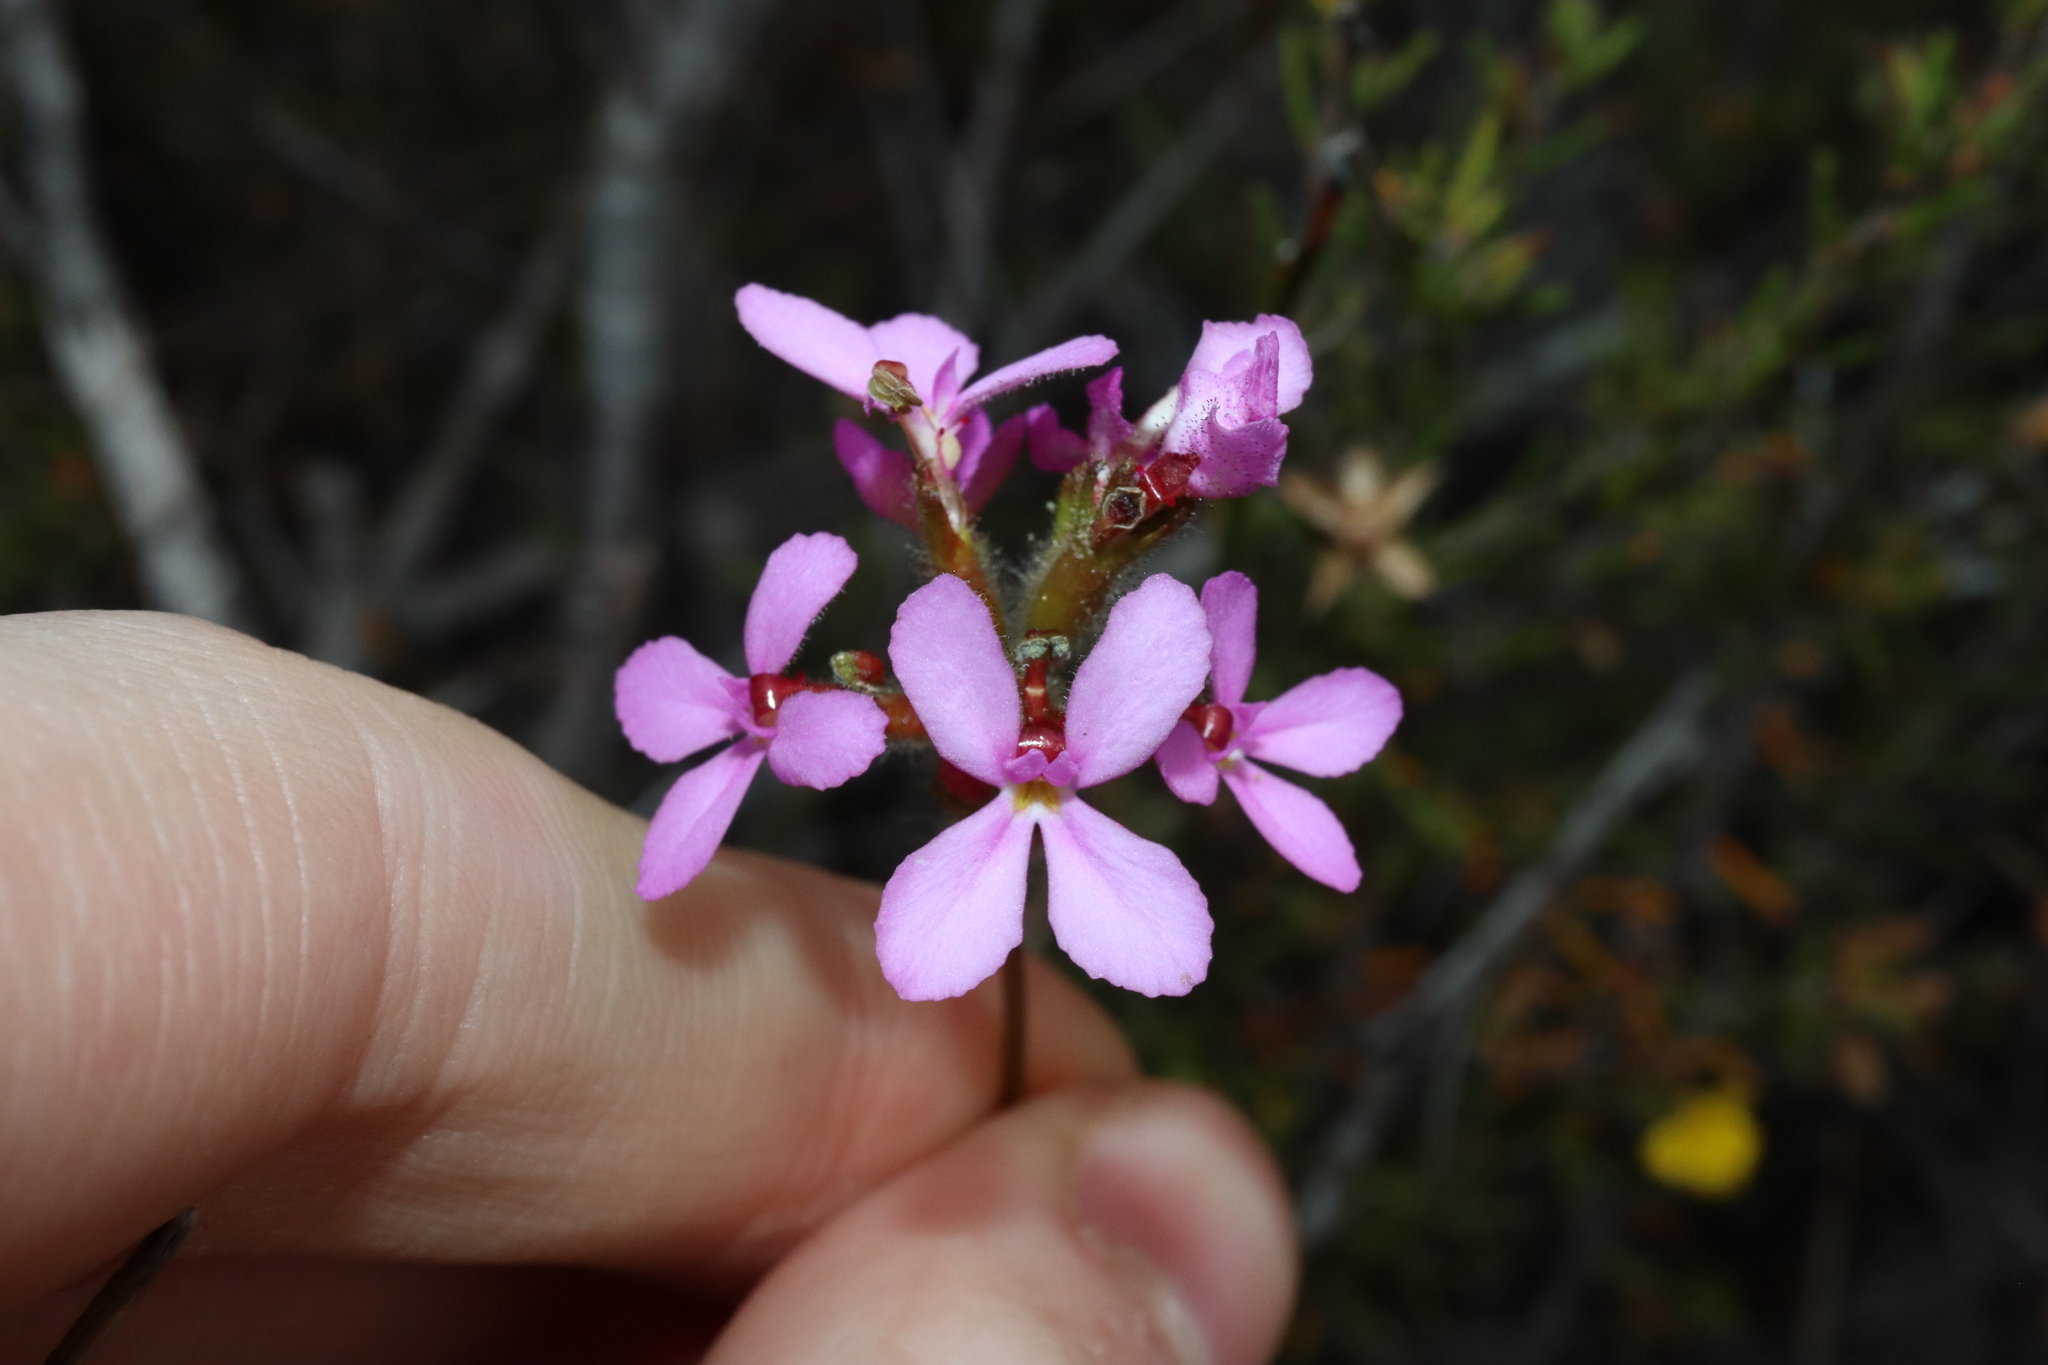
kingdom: Plantae
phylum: Tracheophyta
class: Magnoliopsida
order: Asterales
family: Stylidiaceae
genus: Stylidium
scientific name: Stylidium hirsutum
